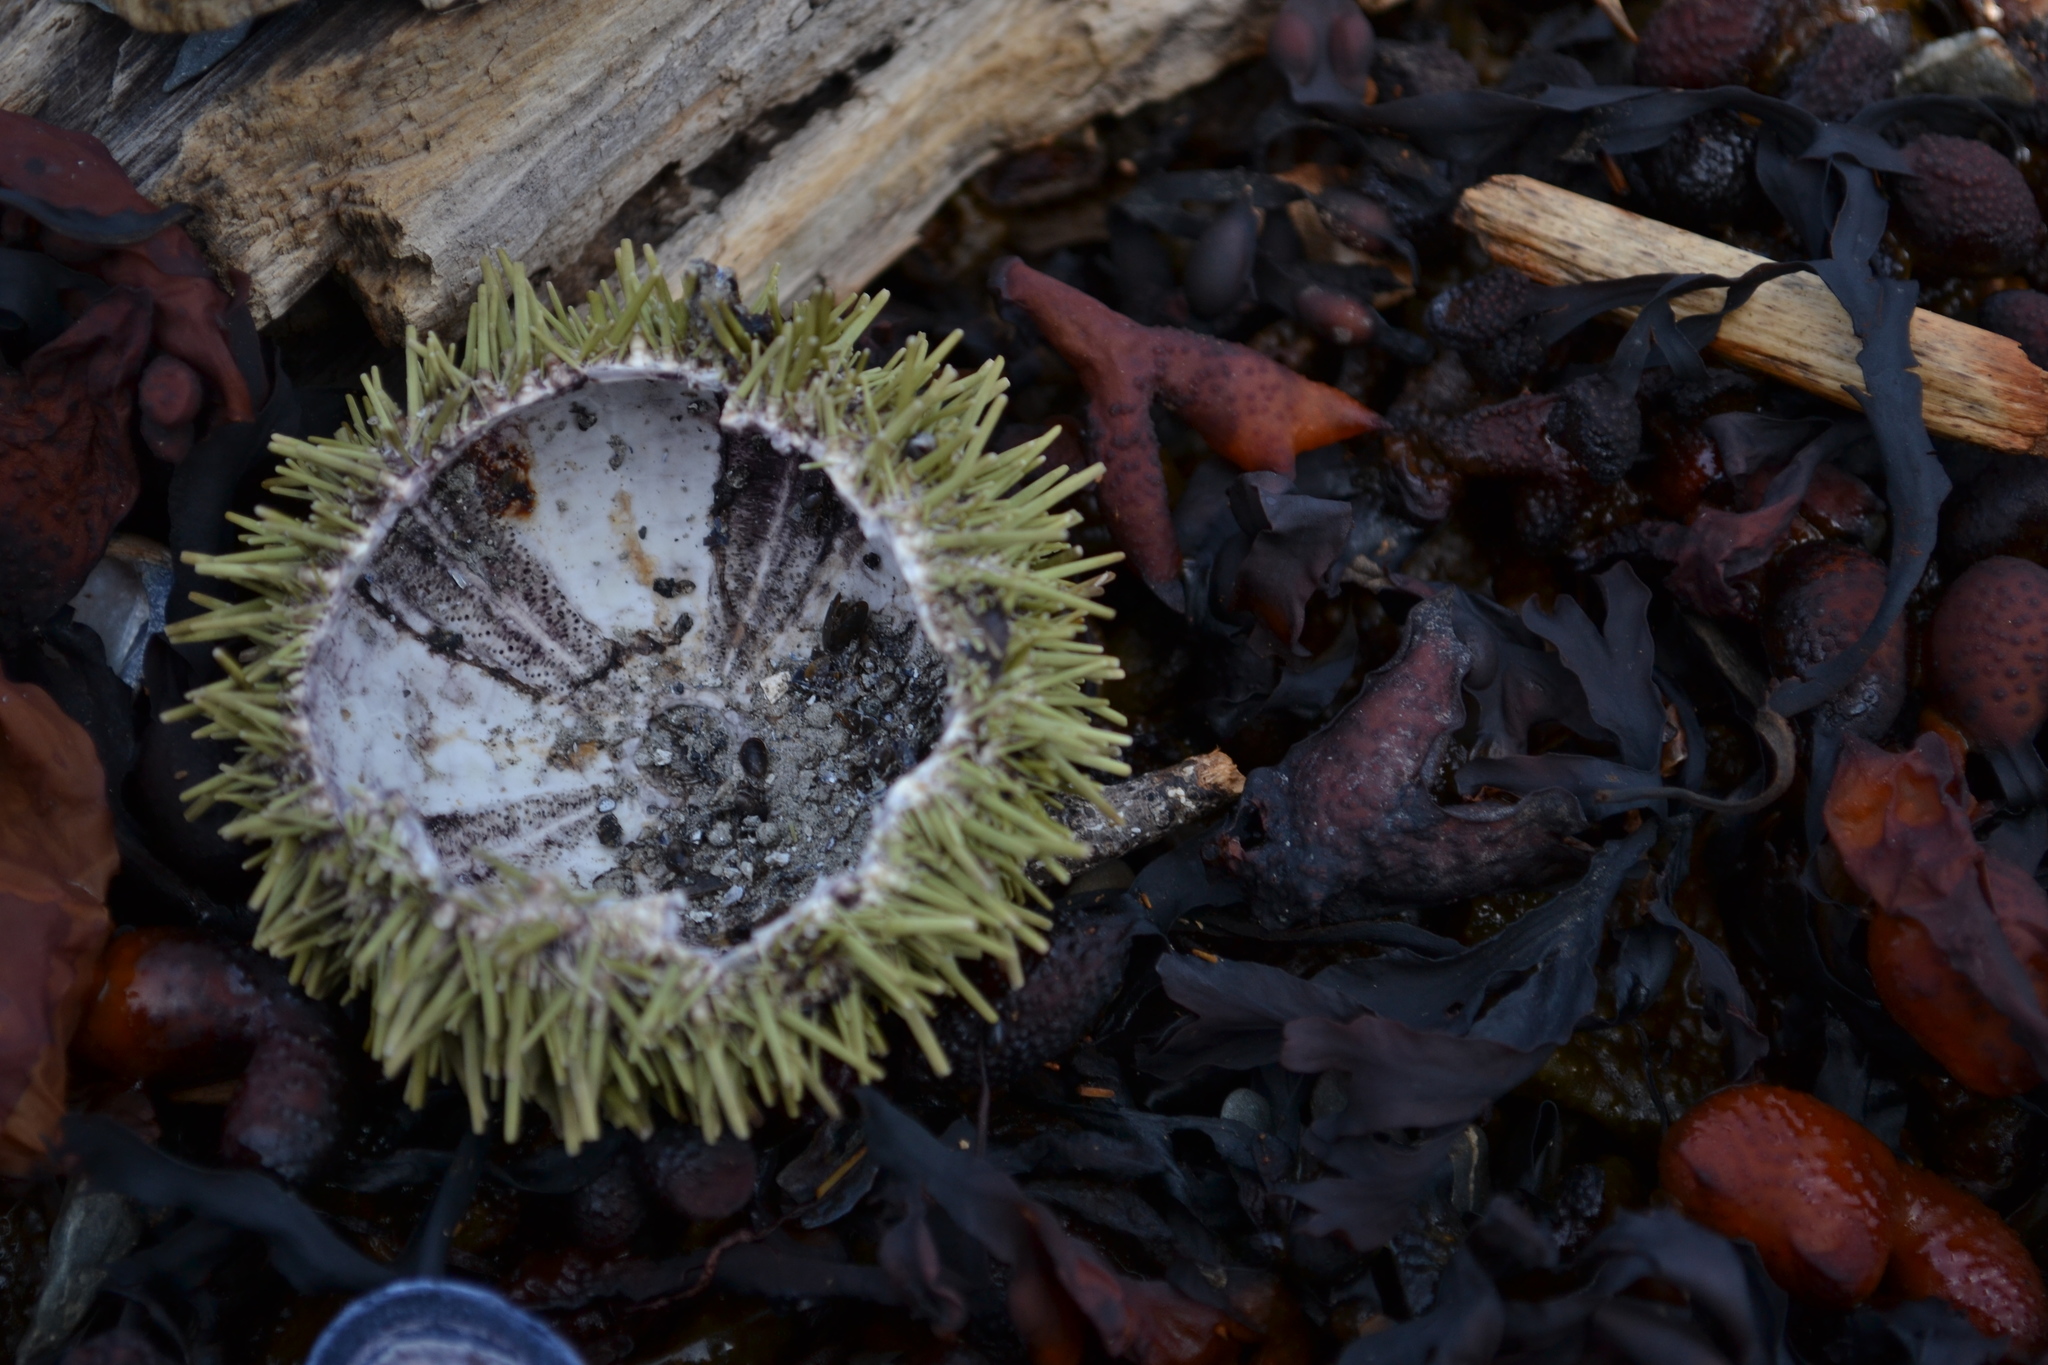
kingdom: Animalia
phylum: Echinodermata
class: Echinoidea
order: Camarodonta
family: Strongylocentrotidae
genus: Strongylocentrotus
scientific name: Strongylocentrotus droebachiensis
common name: Northern sea urchin
